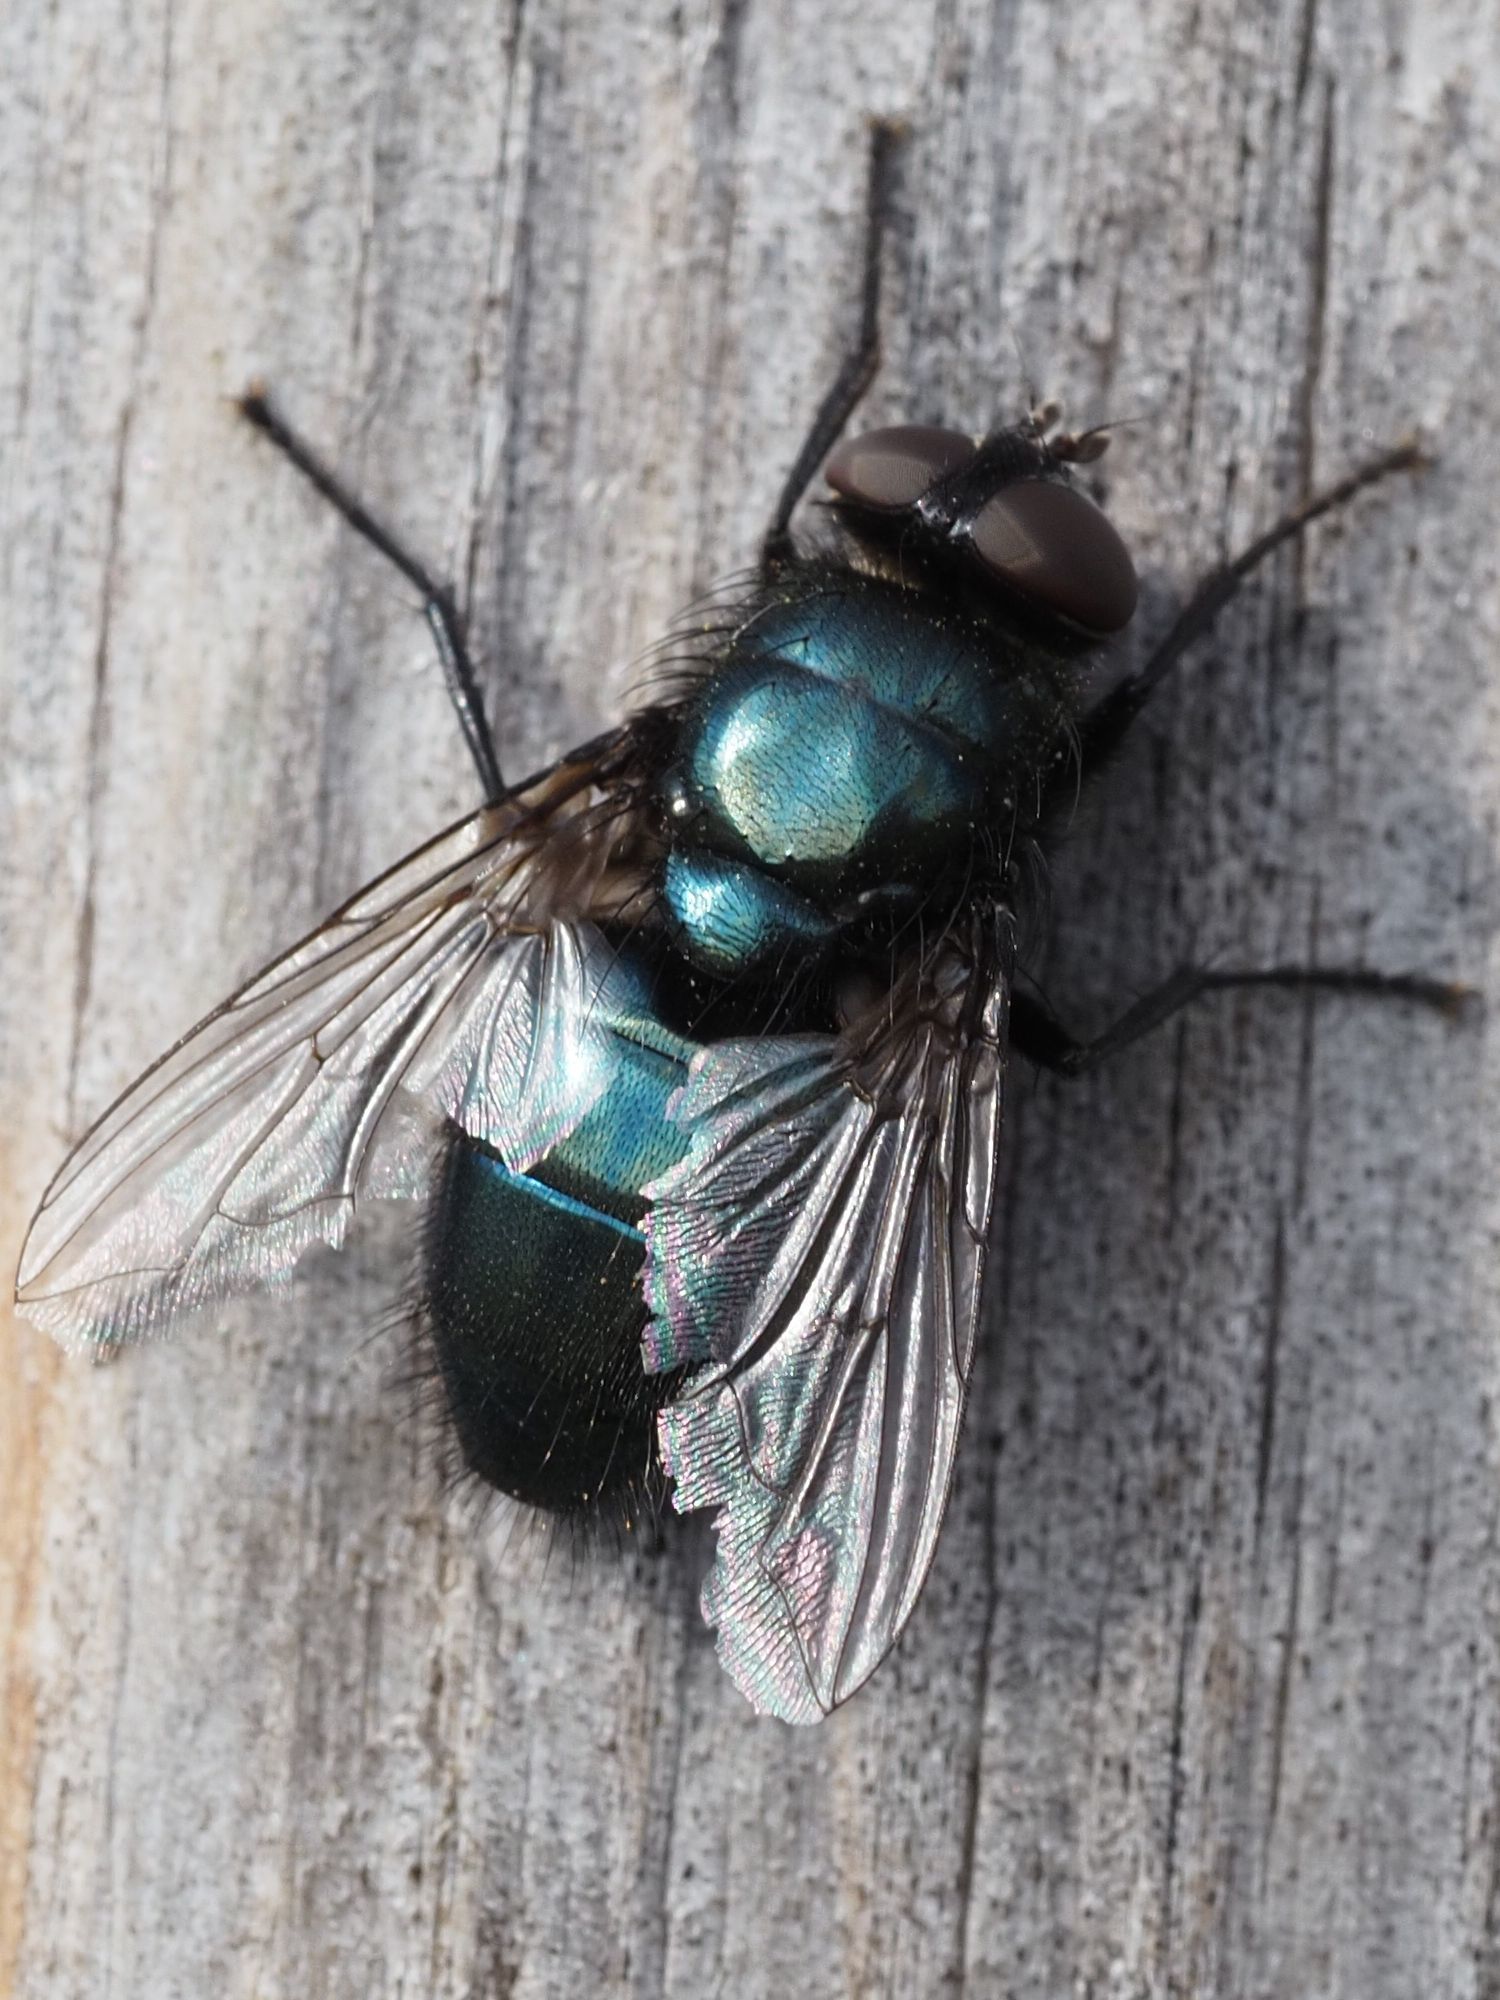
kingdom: Animalia
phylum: Arthropoda
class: Insecta
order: Diptera
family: Calliphoridae
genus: Protophormia
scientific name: Protophormia terraenovae
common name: Blackbottle
